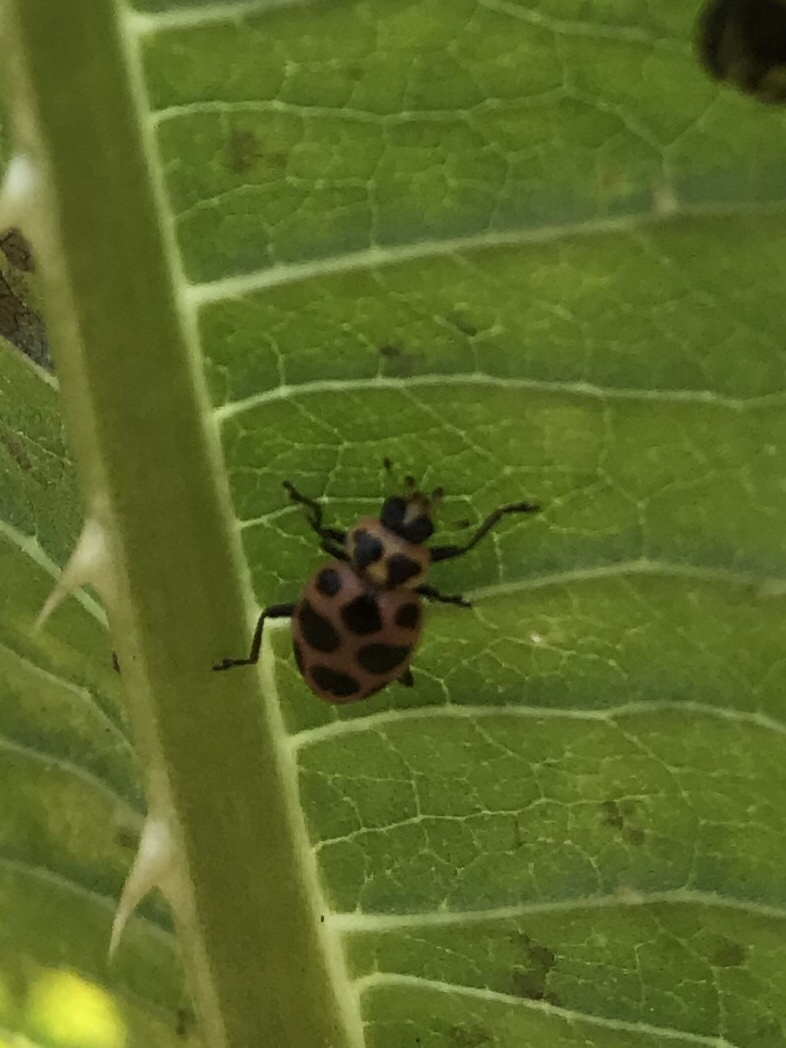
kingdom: Animalia
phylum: Arthropoda
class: Insecta
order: Coleoptera
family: Coccinellidae
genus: Coleomegilla
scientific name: Coleomegilla maculata
